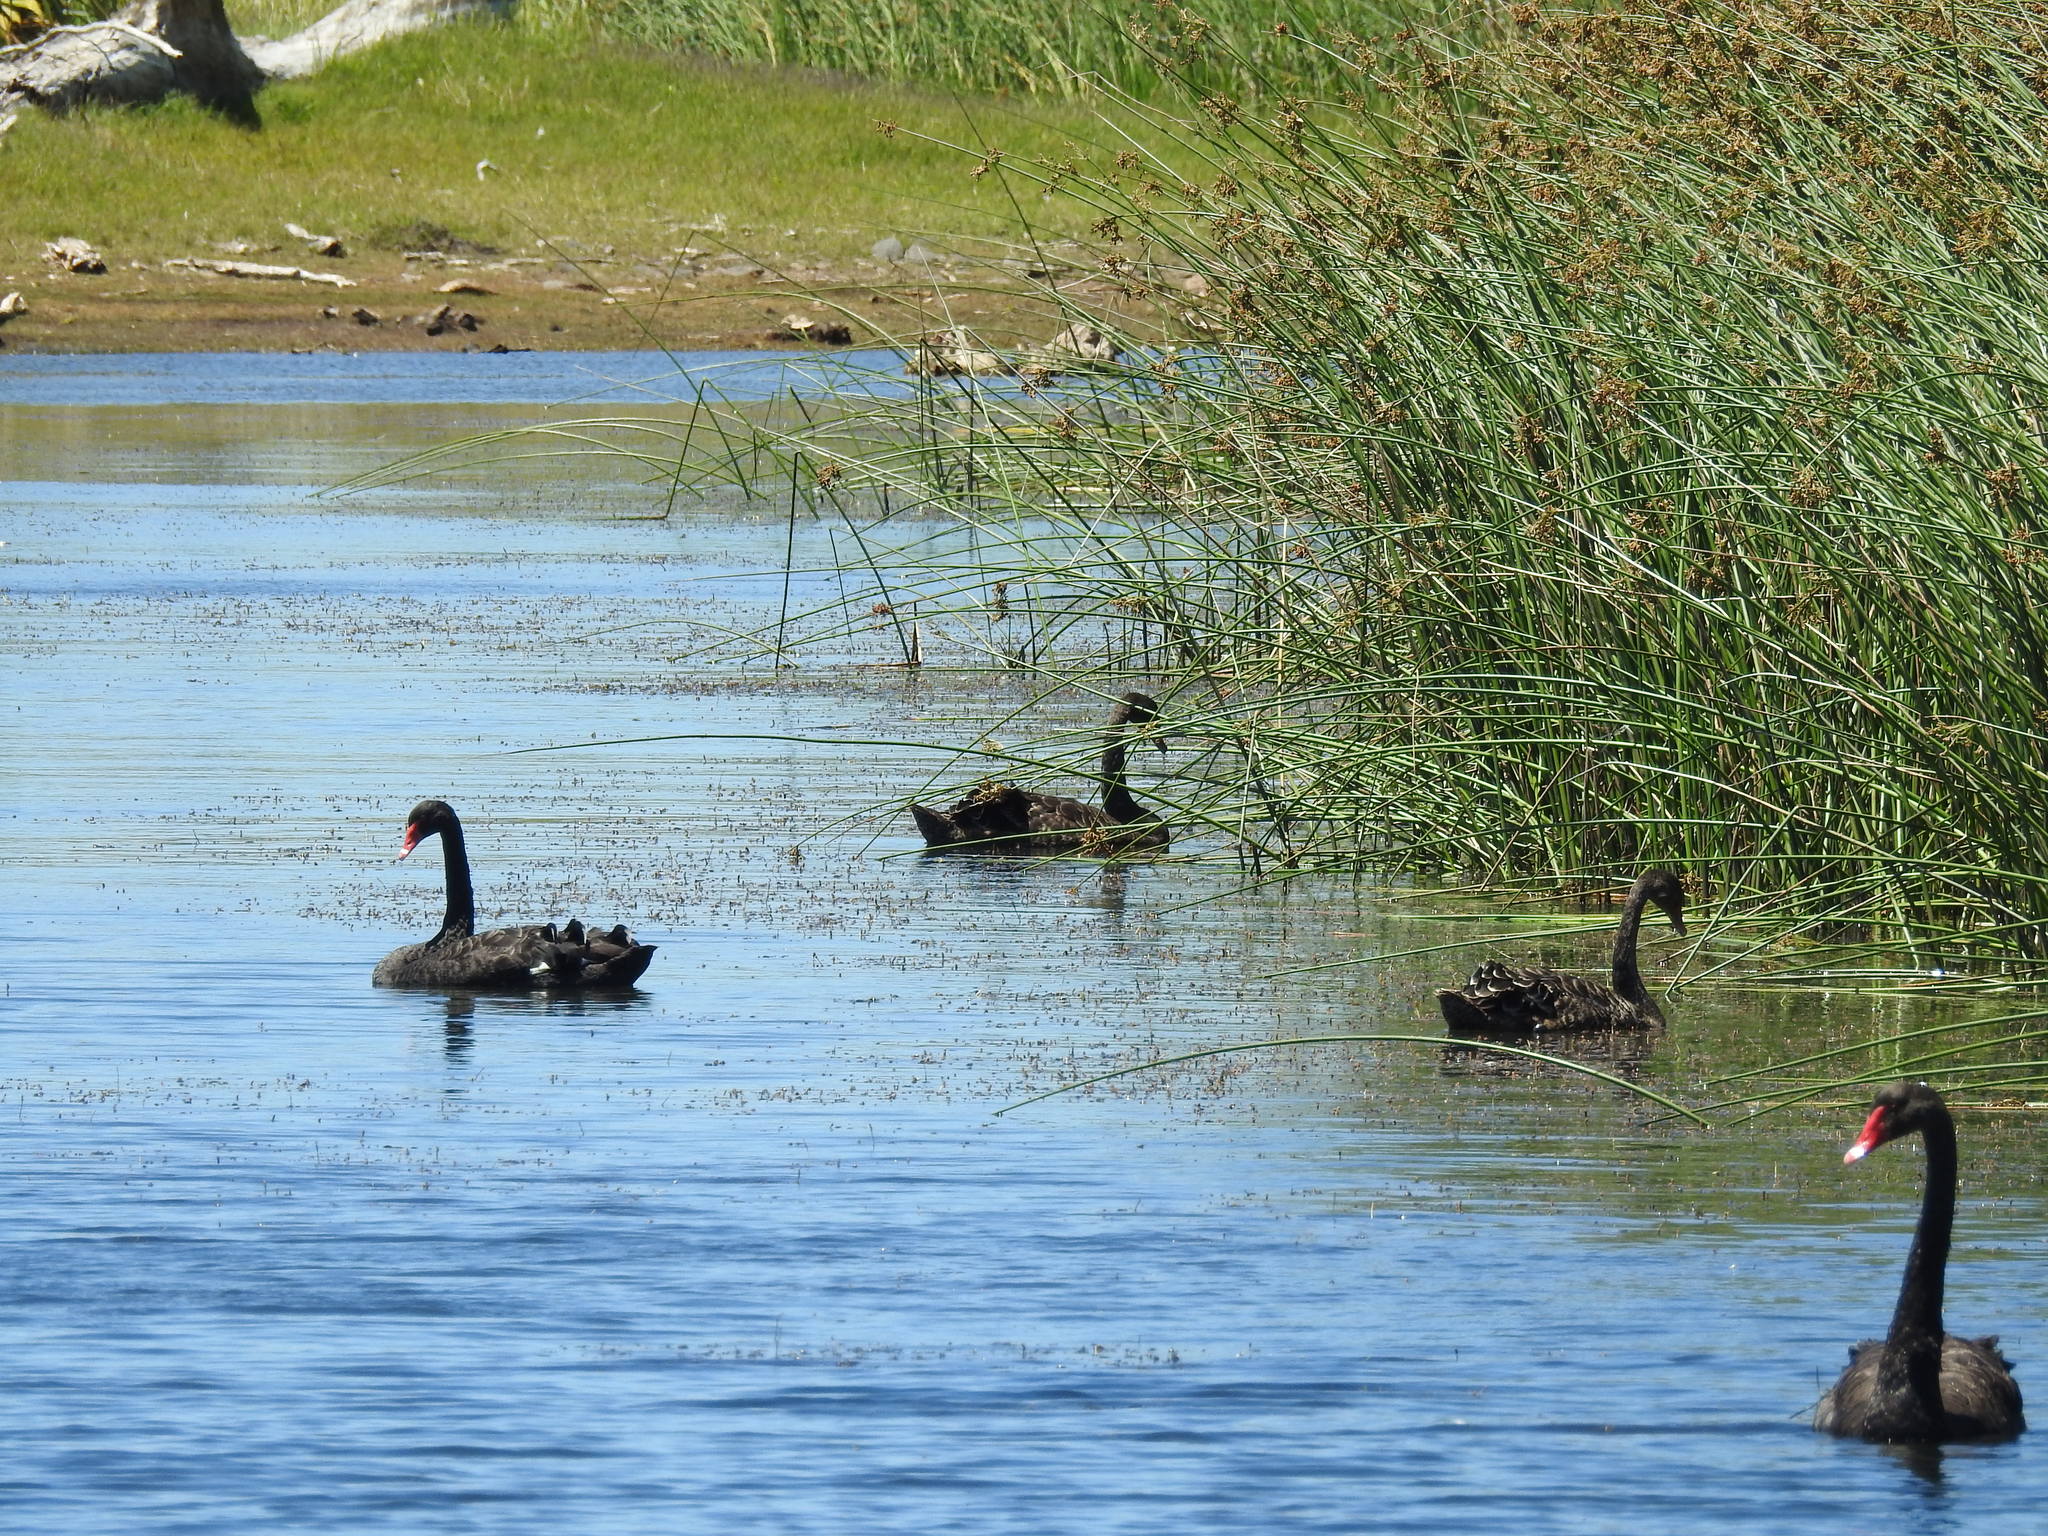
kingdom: Animalia
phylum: Chordata
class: Aves
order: Anseriformes
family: Anatidae
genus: Cygnus
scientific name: Cygnus atratus
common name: Black swan
